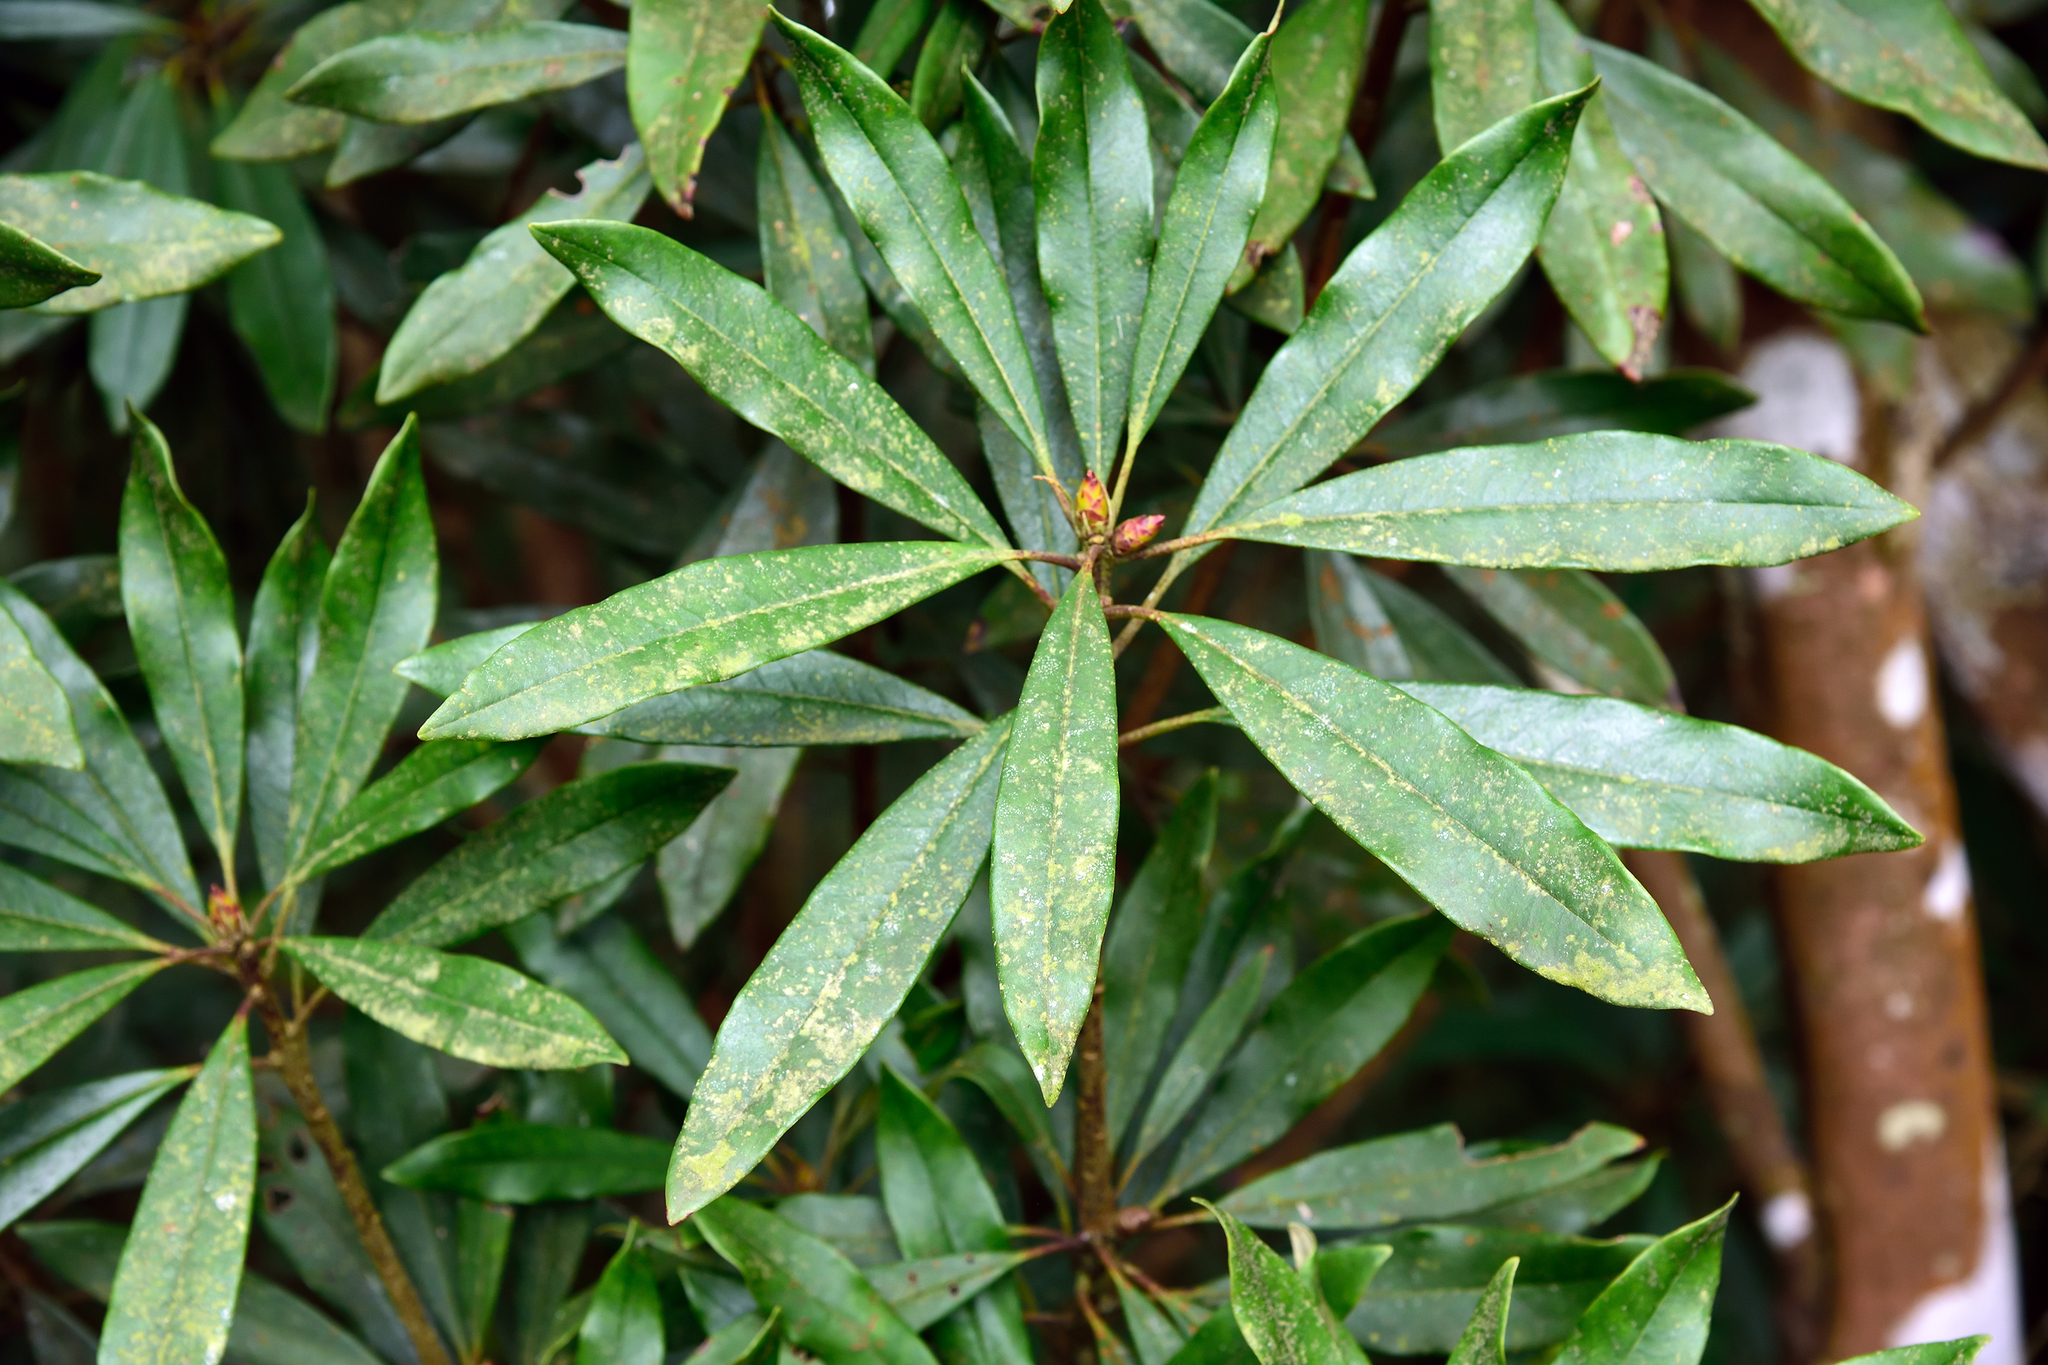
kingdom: Plantae
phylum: Tracheophyta
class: Magnoliopsida
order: Ericales
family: Ericaceae
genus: Rhododendron
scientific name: Rhododendron formosanum
